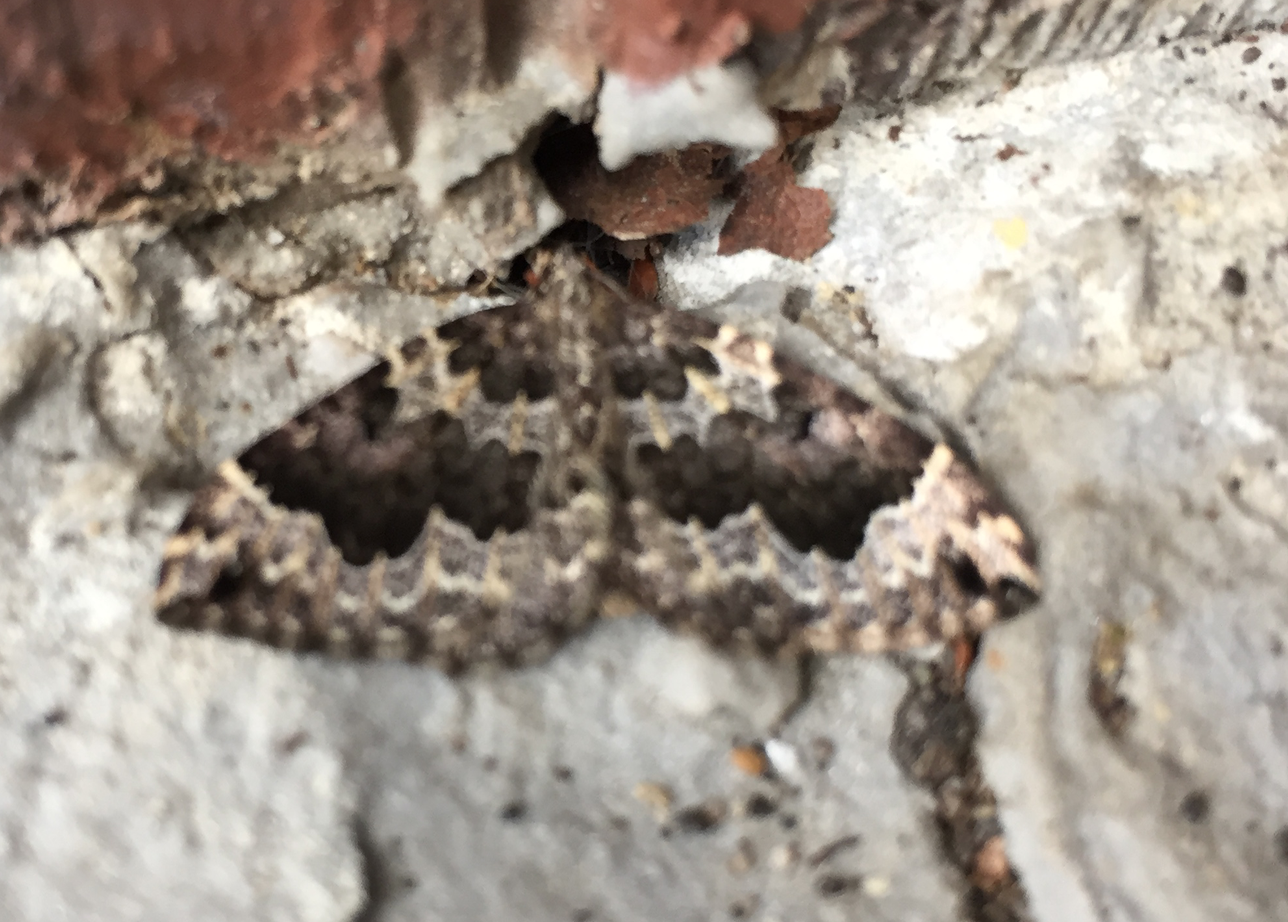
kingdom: Animalia
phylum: Arthropoda
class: Insecta
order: Lepidoptera
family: Geometridae
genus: Eustroma
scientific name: Eustroma semiatrata
